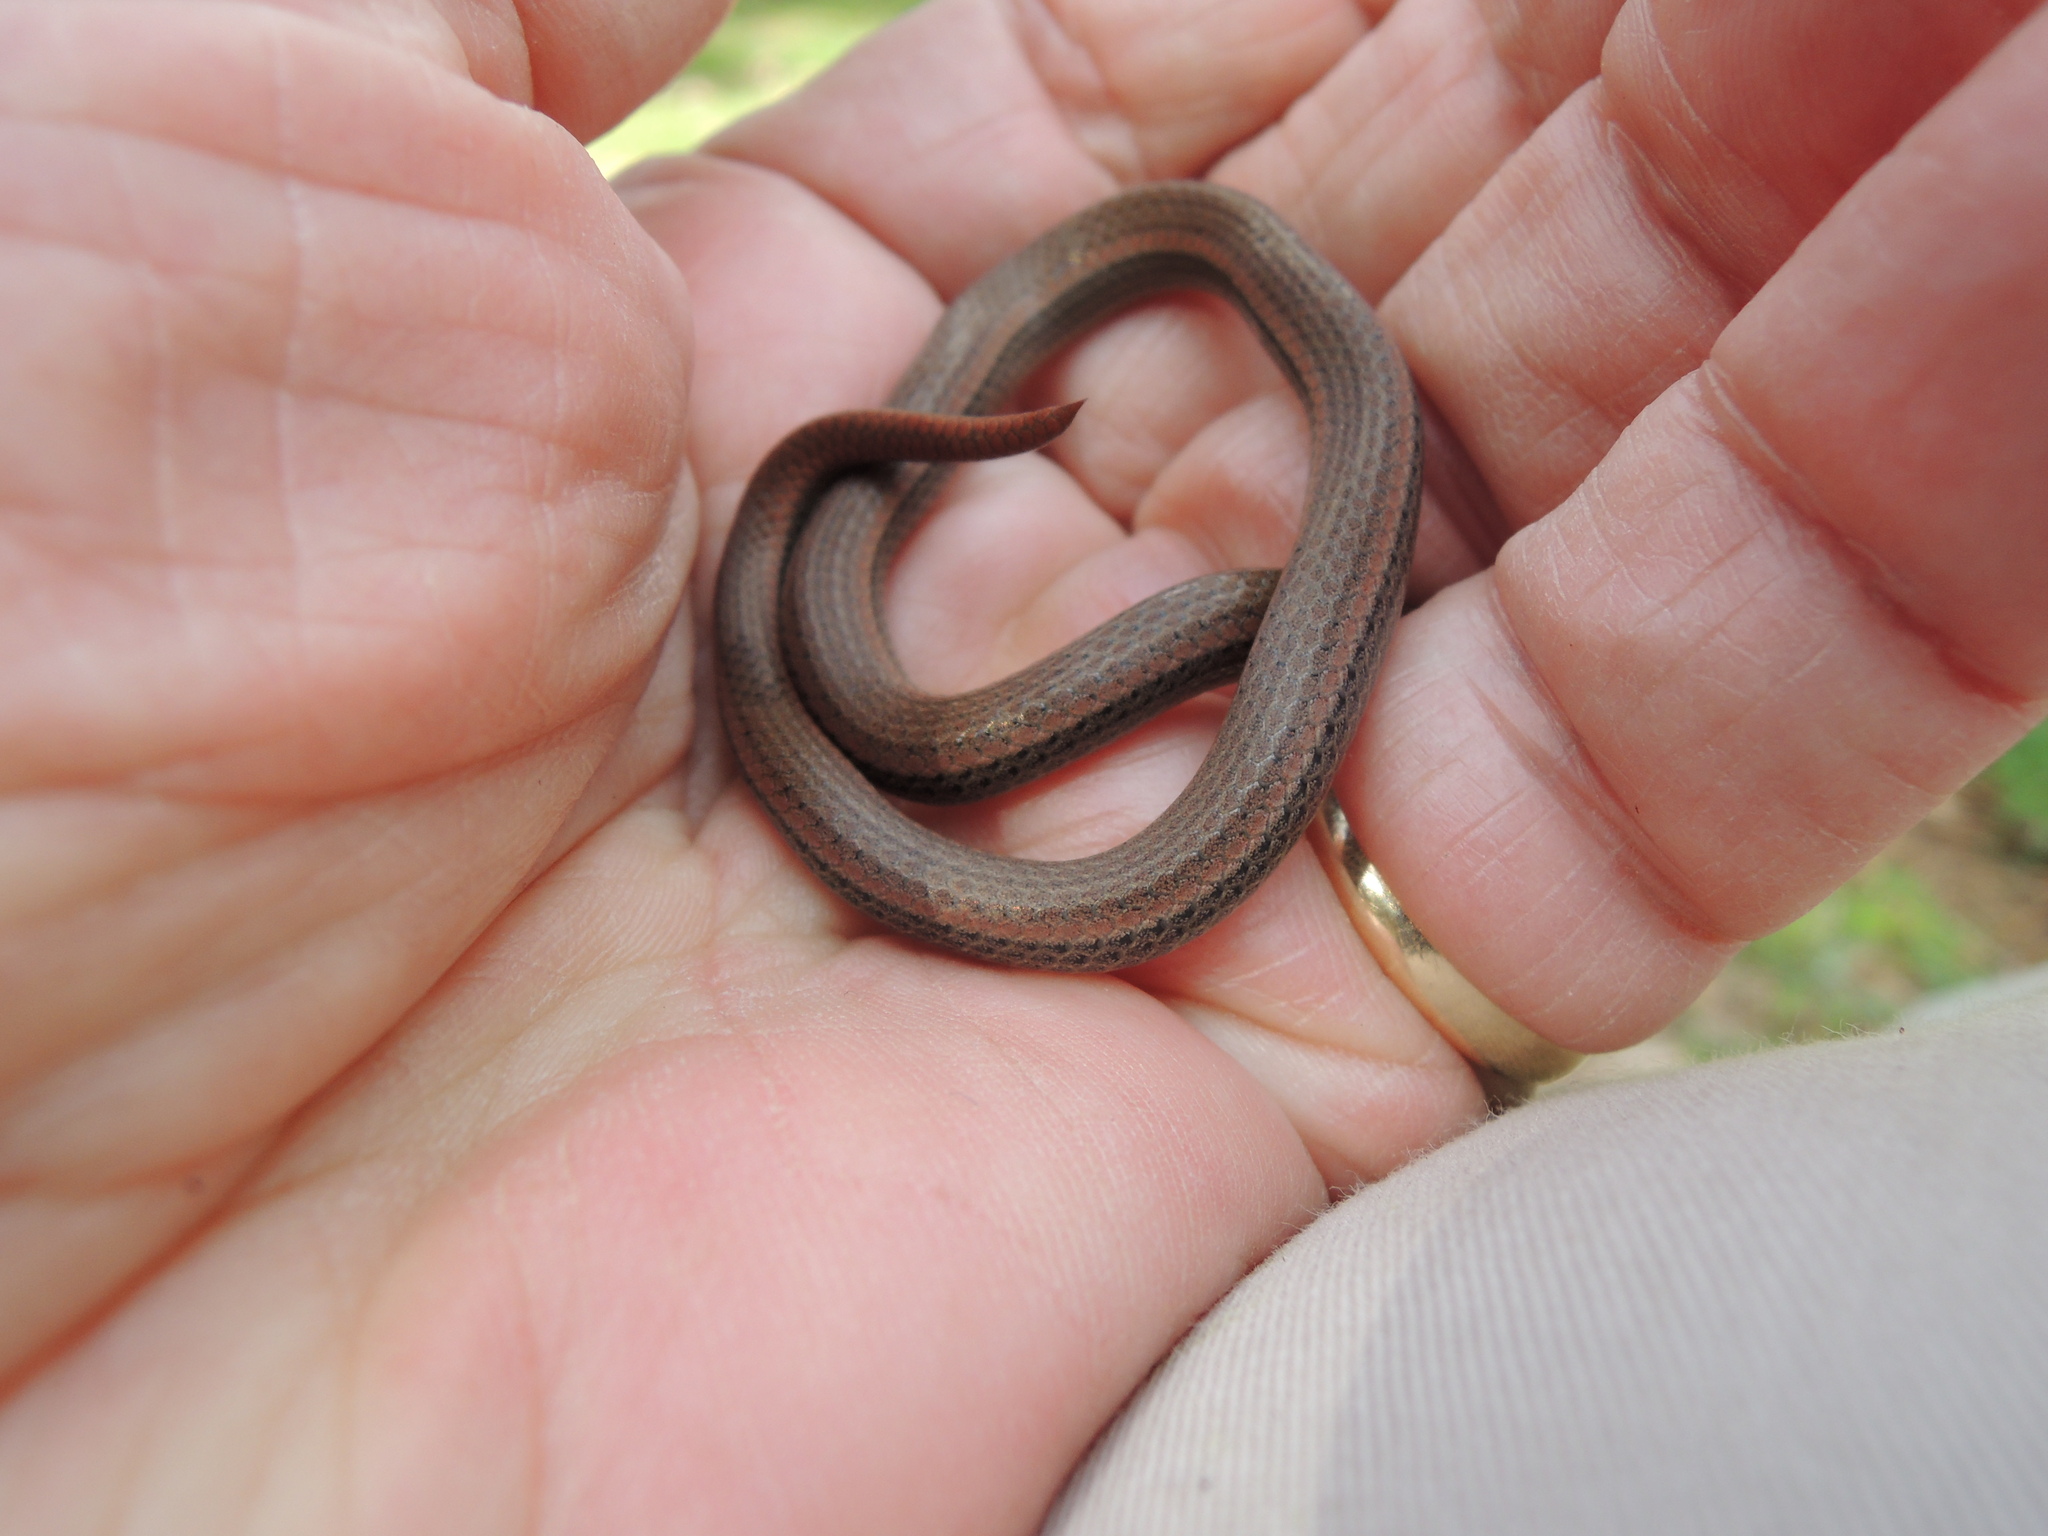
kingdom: Animalia
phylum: Chordata
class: Squamata
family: Colubridae
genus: Contia
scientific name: Contia tenuis
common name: Sharptail snake
